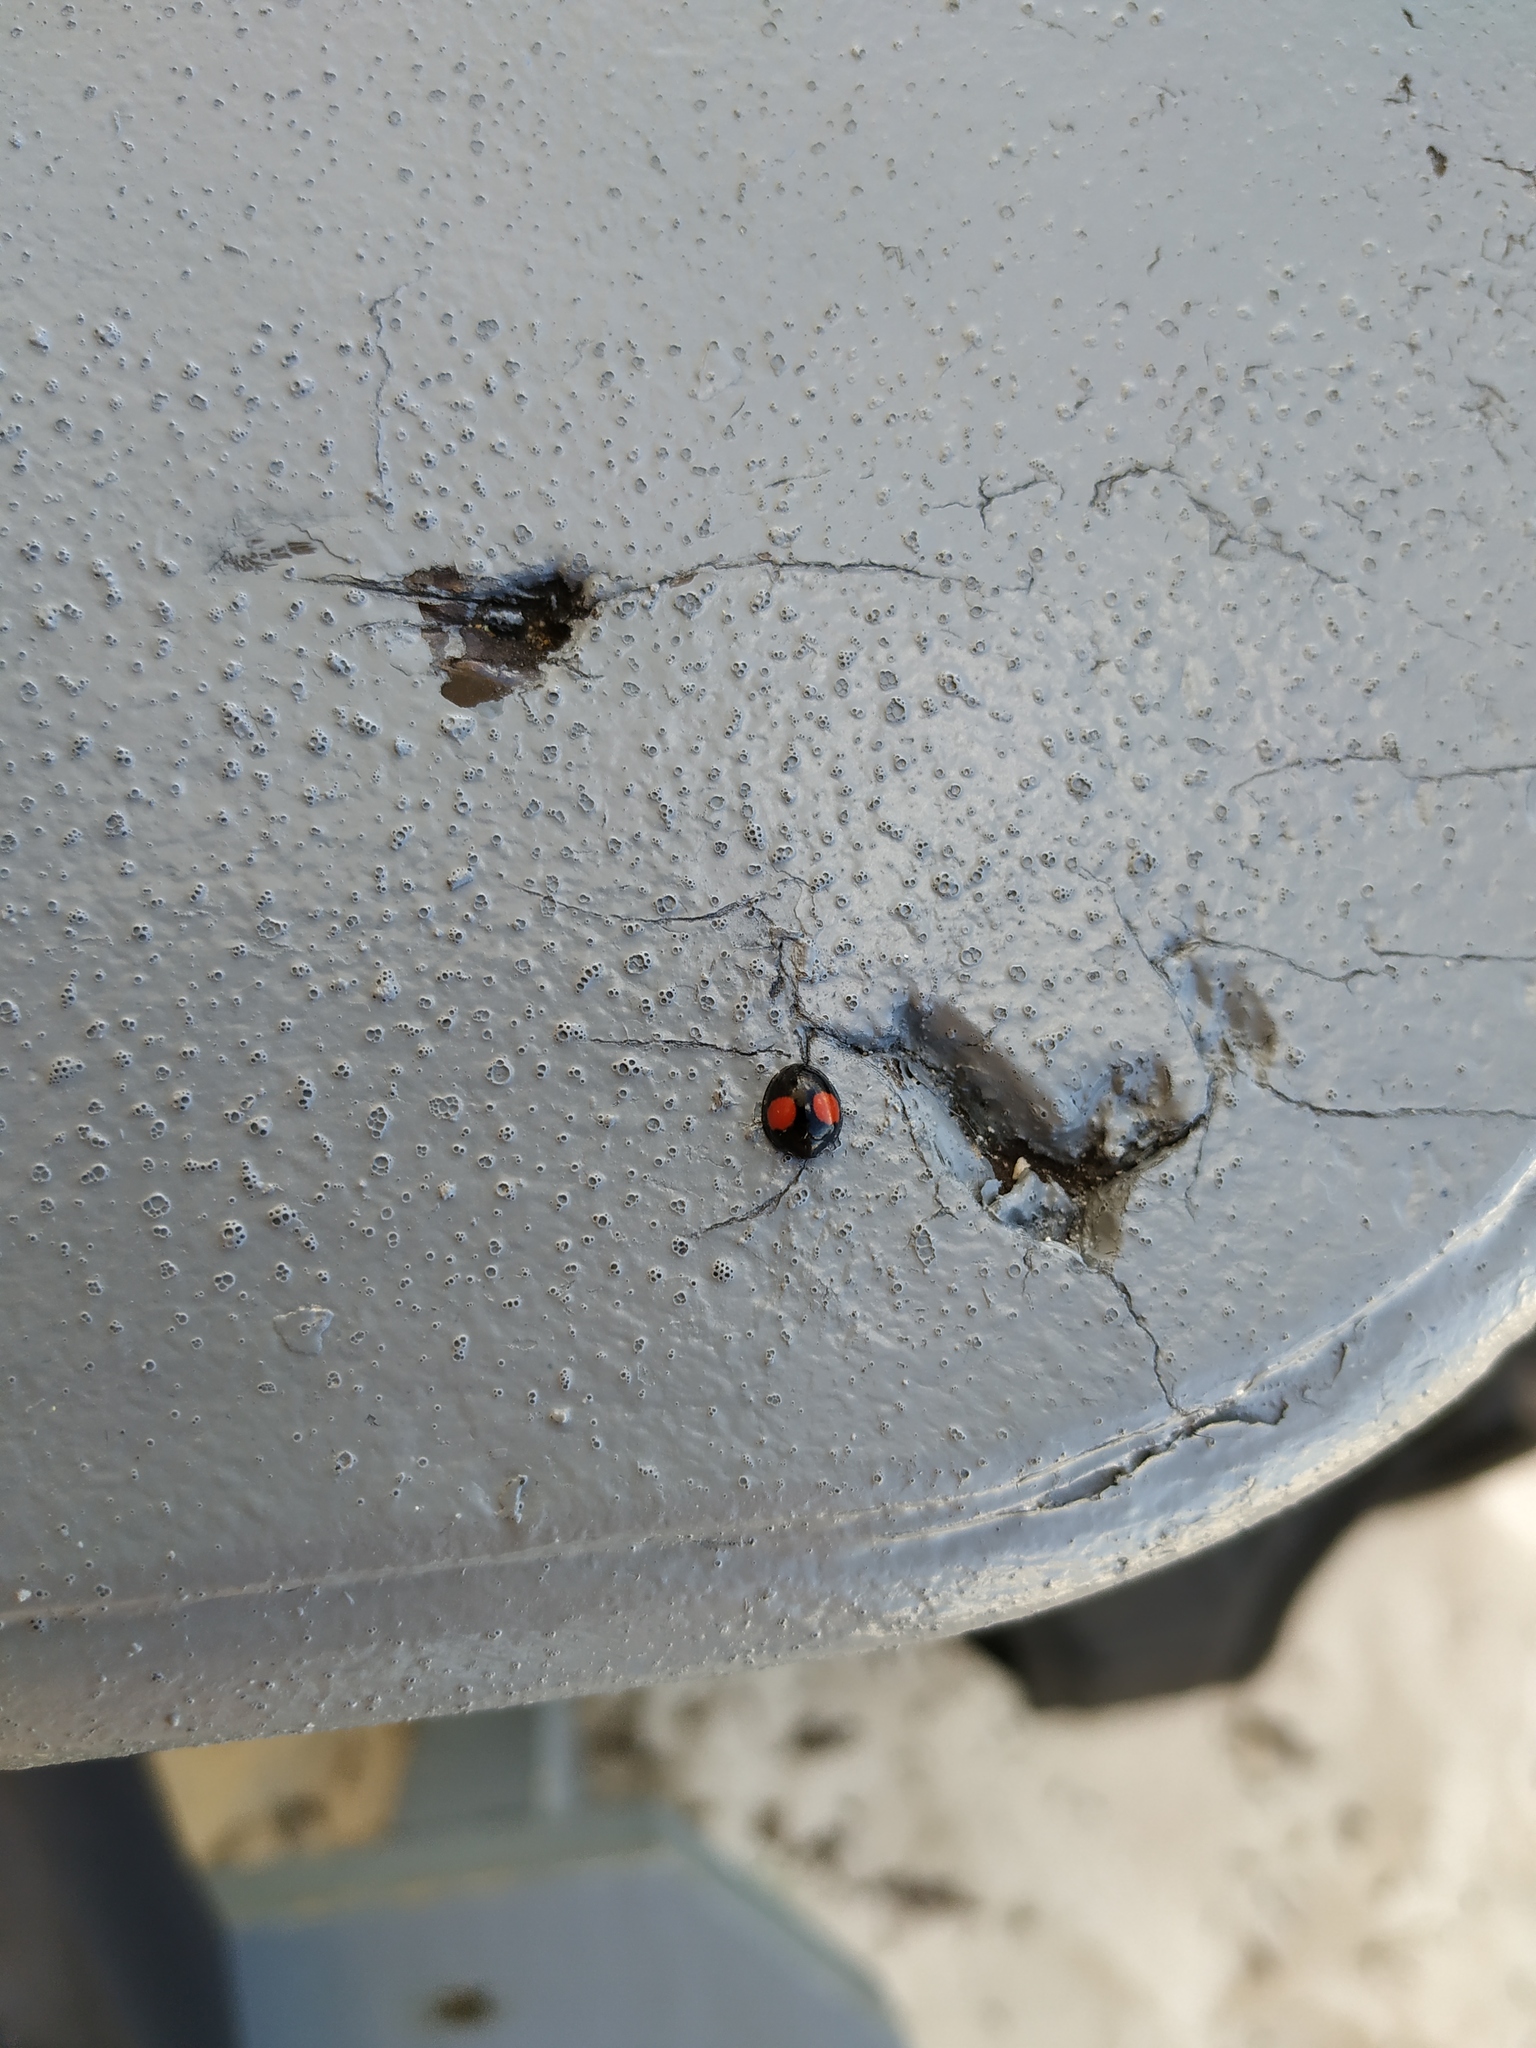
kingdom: Animalia
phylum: Arthropoda
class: Insecta
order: Coleoptera
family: Coccinellidae
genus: Chilocorus
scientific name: Chilocorus cacti
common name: Cactus lady beetle
